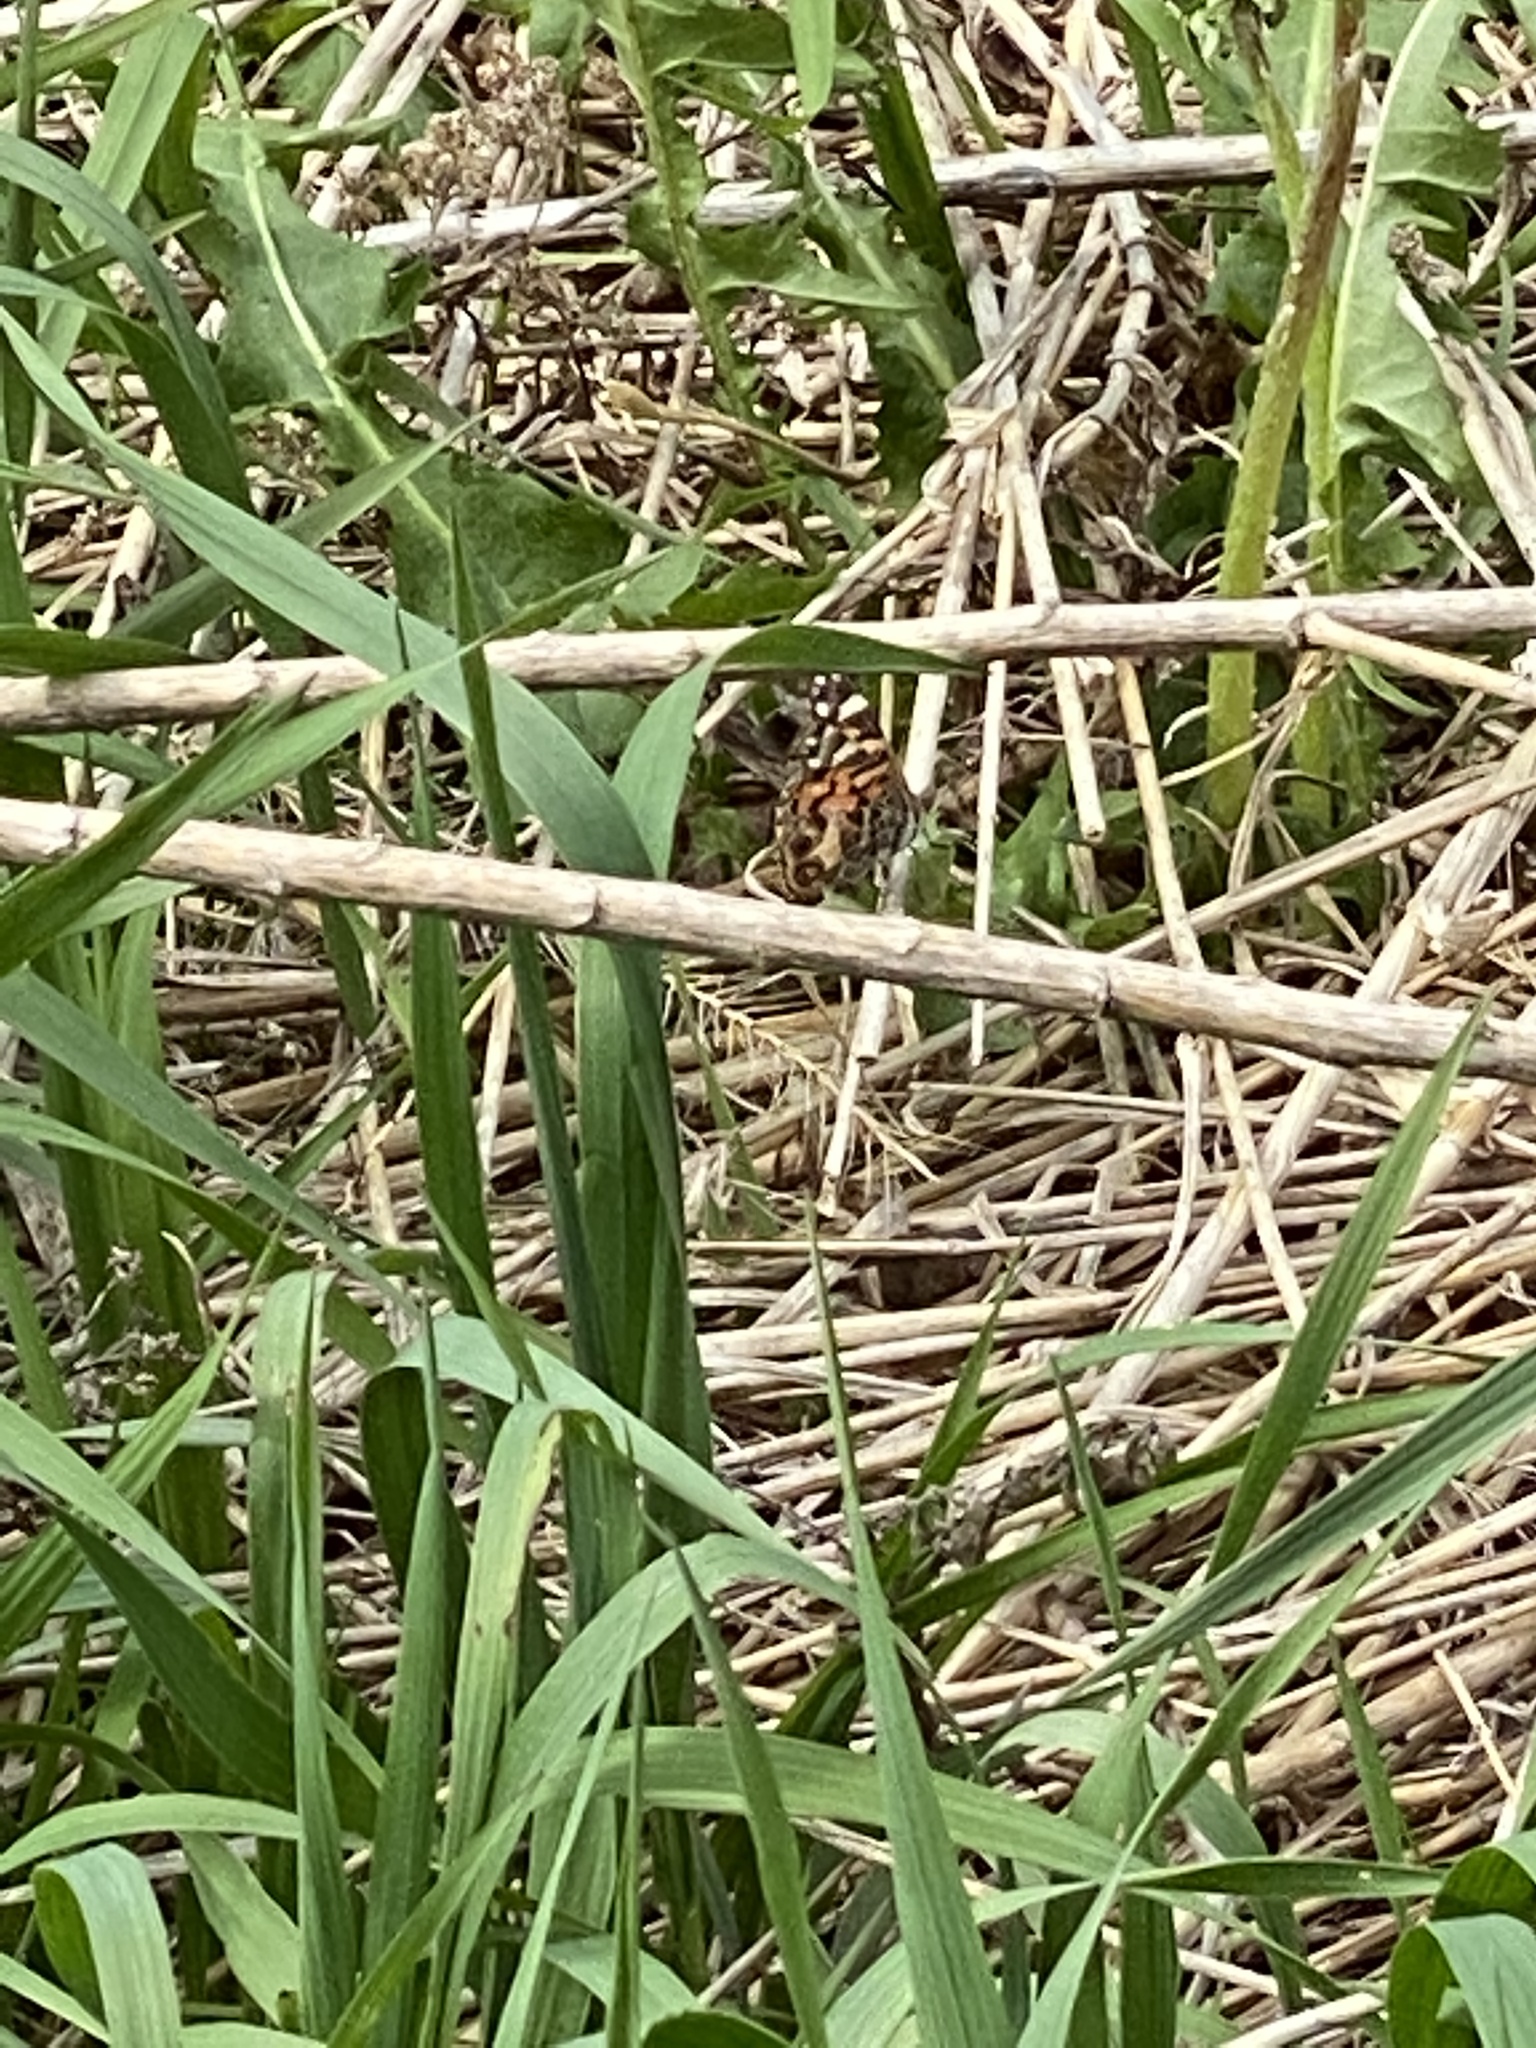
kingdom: Animalia
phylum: Arthropoda
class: Insecta
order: Lepidoptera
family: Nymphalidae
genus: Vanessa
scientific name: Vanessa virginiensis
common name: American lady
